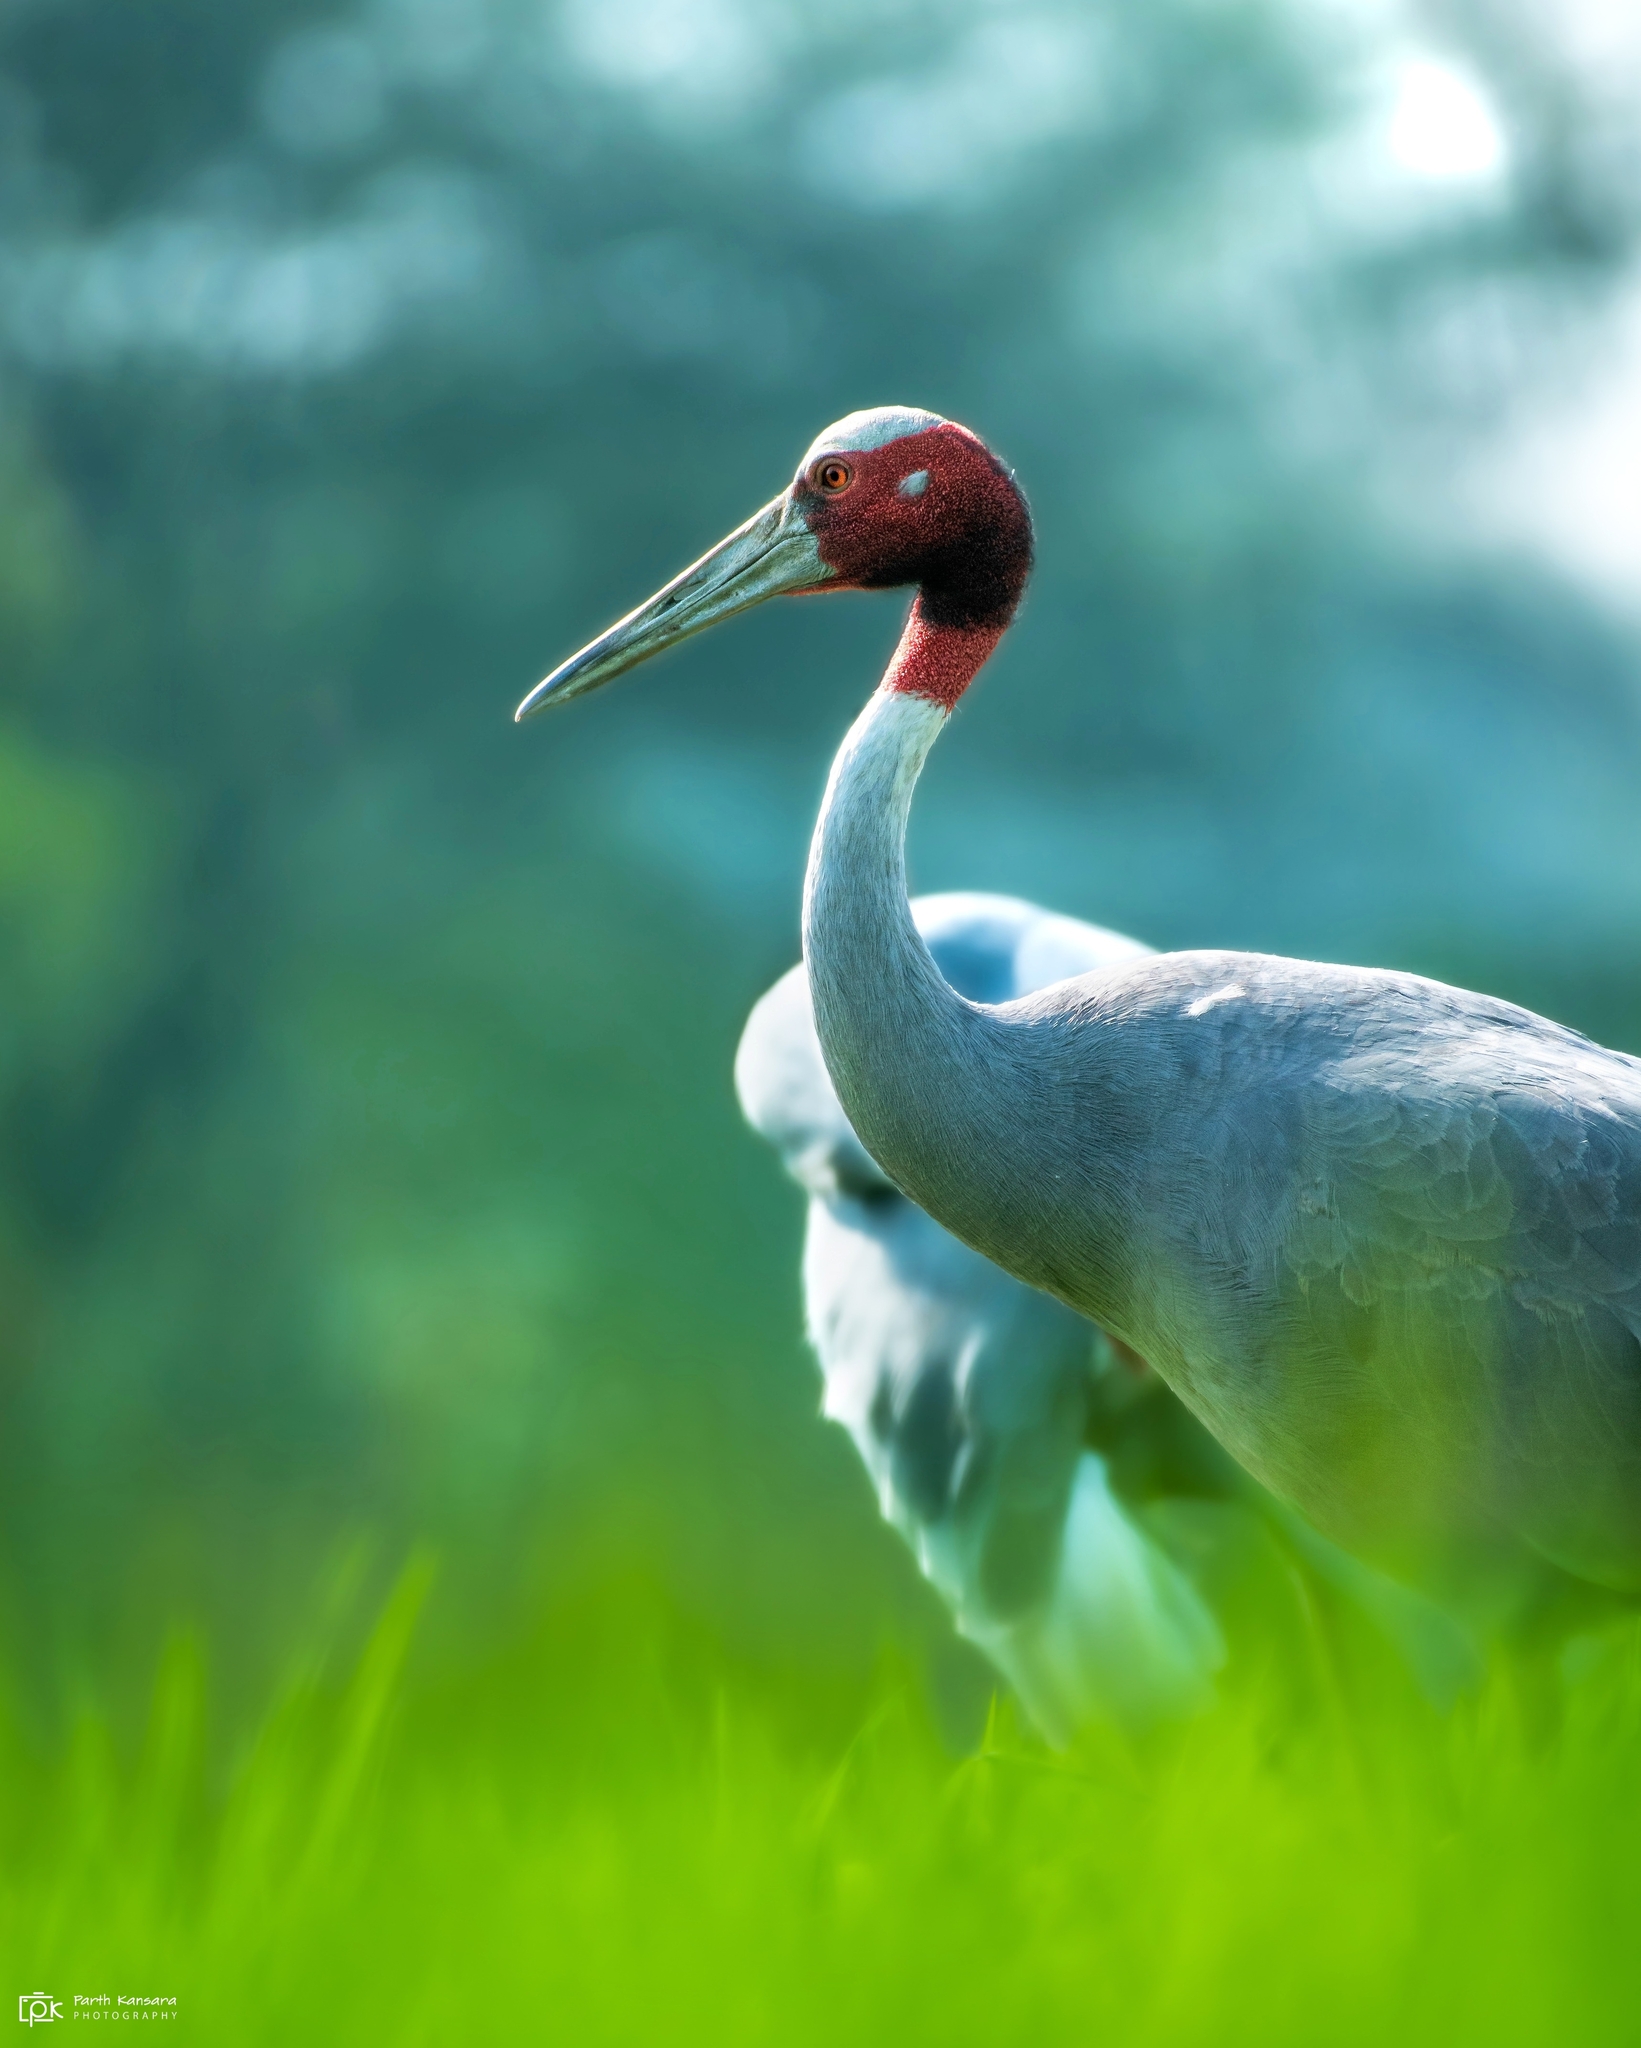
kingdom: Animalia
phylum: Chordata
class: Aves
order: Gruiformes
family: Gruidae
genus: Grus
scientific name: Grus antigone
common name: Sarus crane
